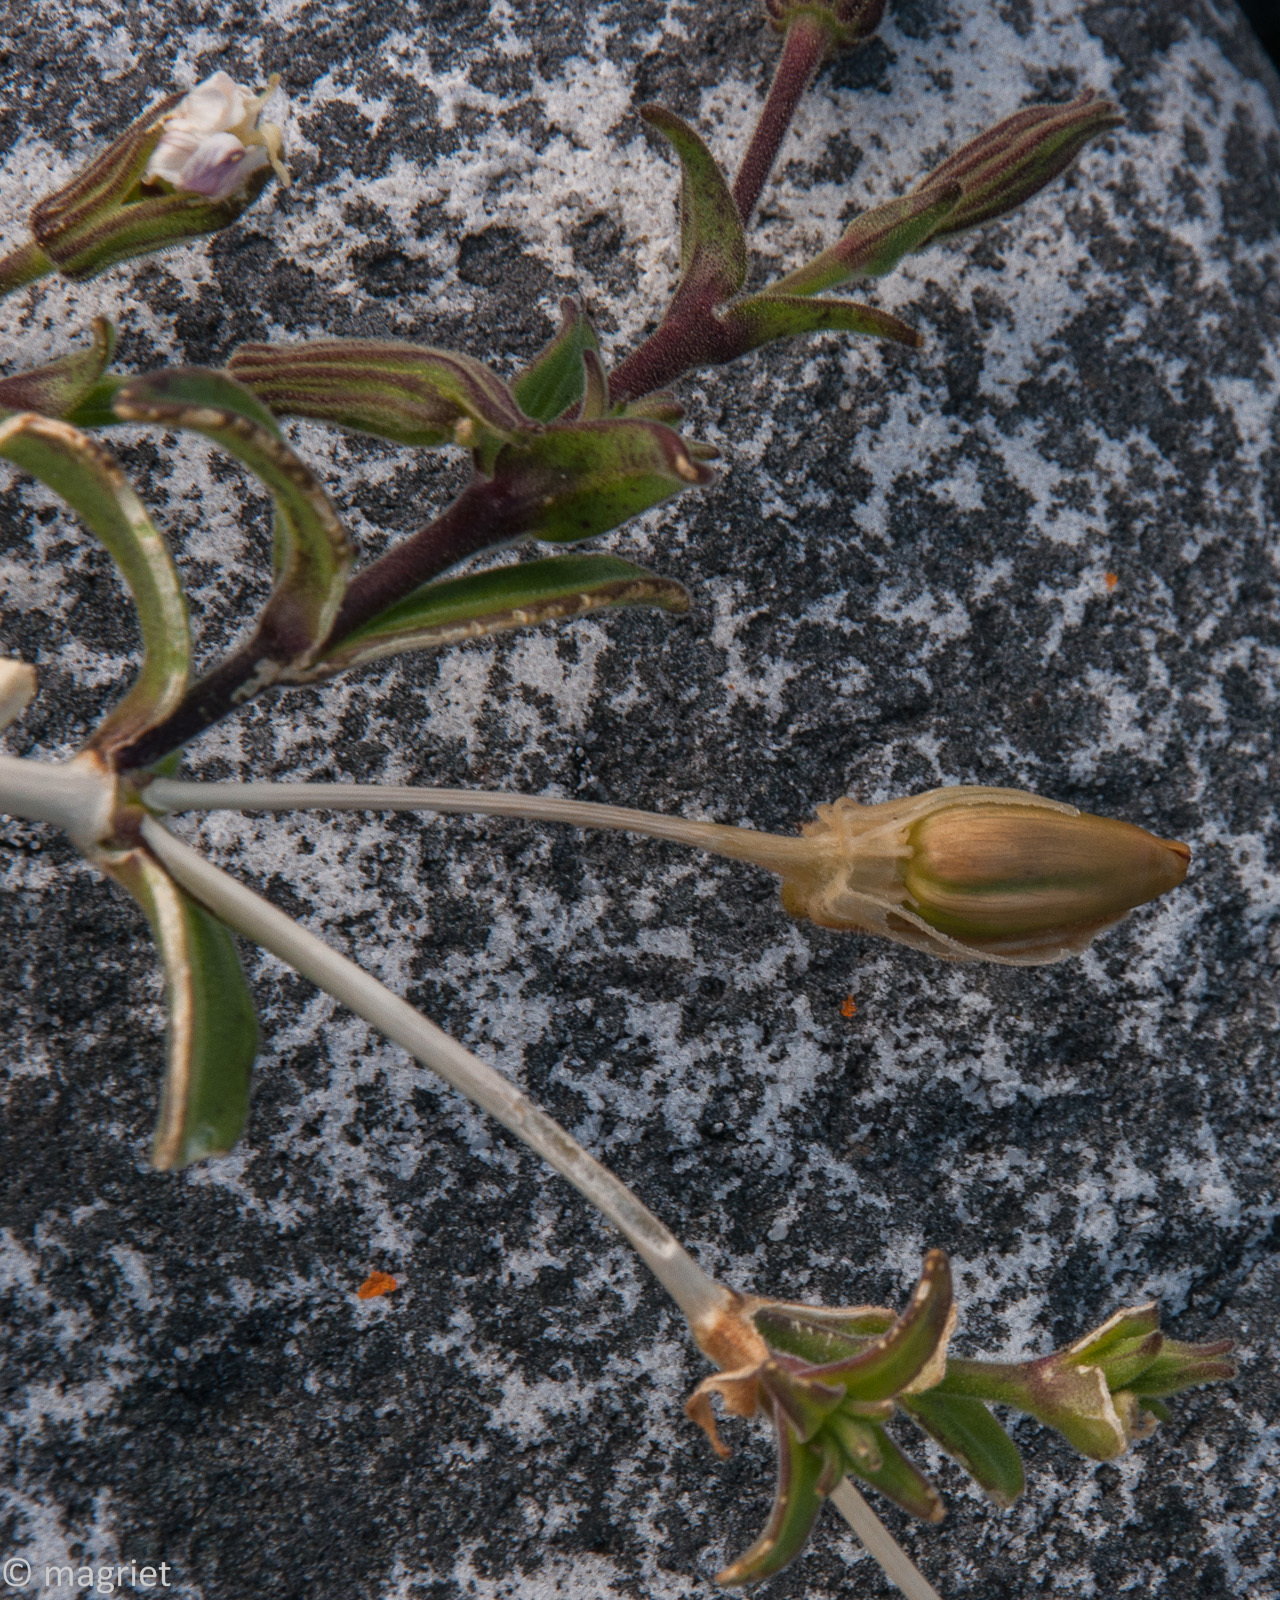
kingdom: Plantae
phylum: Tracheophyta
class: Magnoliopsida
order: Caryophyllales
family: Caryophyllaceae
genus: Silene
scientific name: Silene undulata
